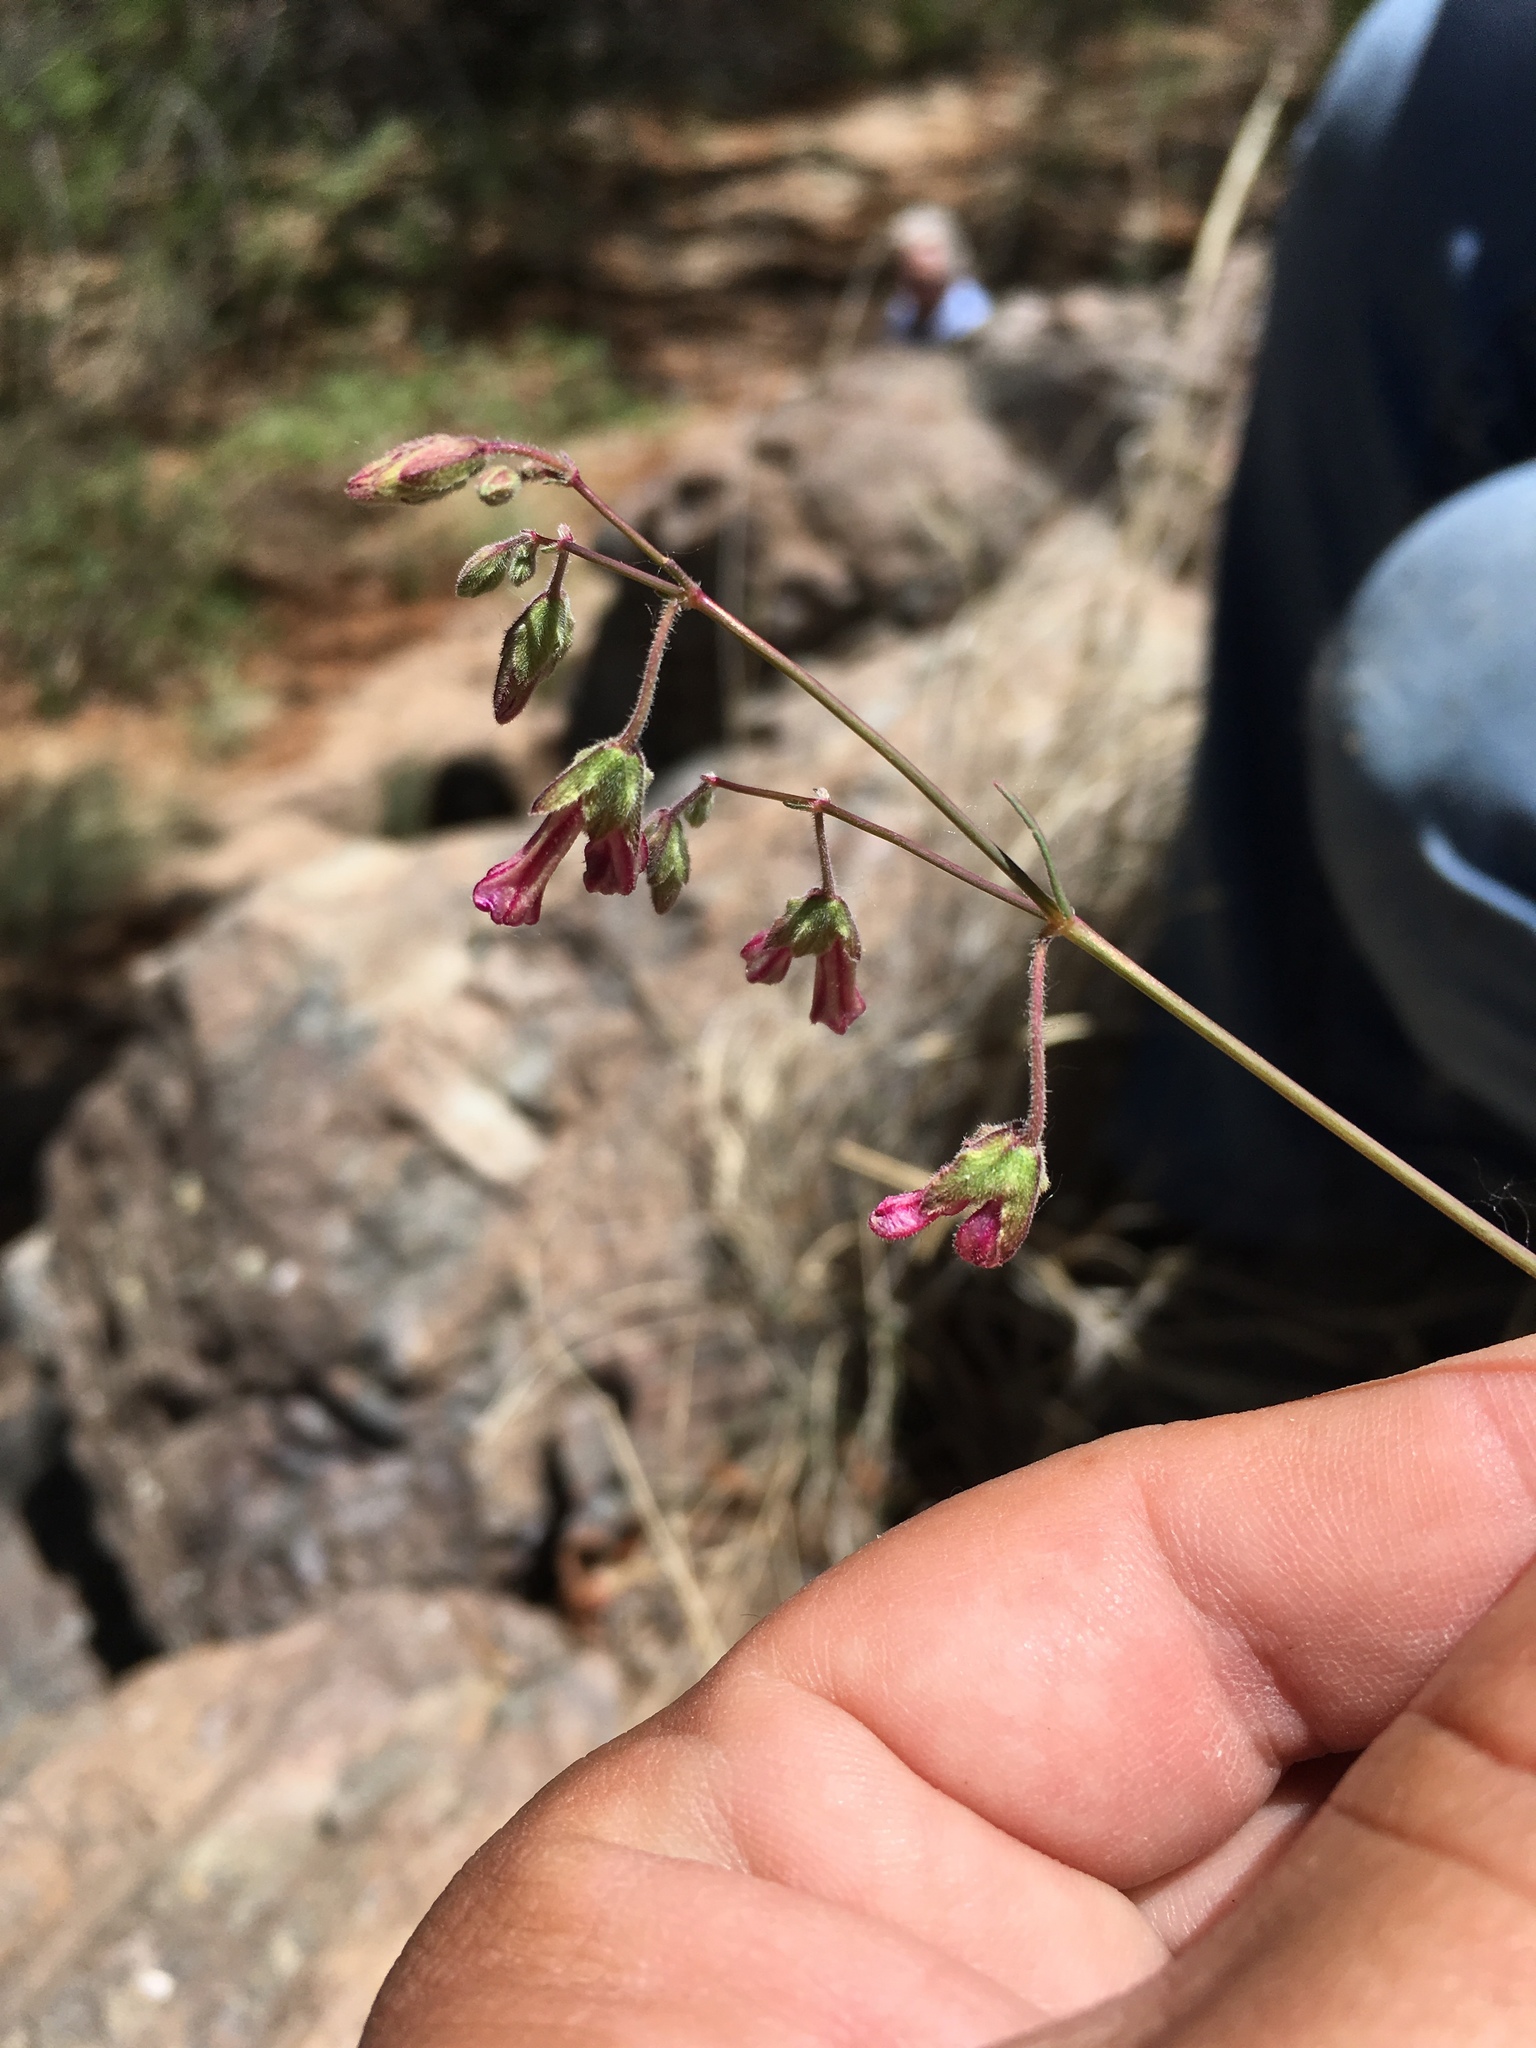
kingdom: Plantae
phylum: Tracheophyta
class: Magnoliopsida
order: Caryophyllales
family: Nyctaginaceae
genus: Mirabilis
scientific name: Mirabilis coccinea
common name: Scarlet four-o'clock
